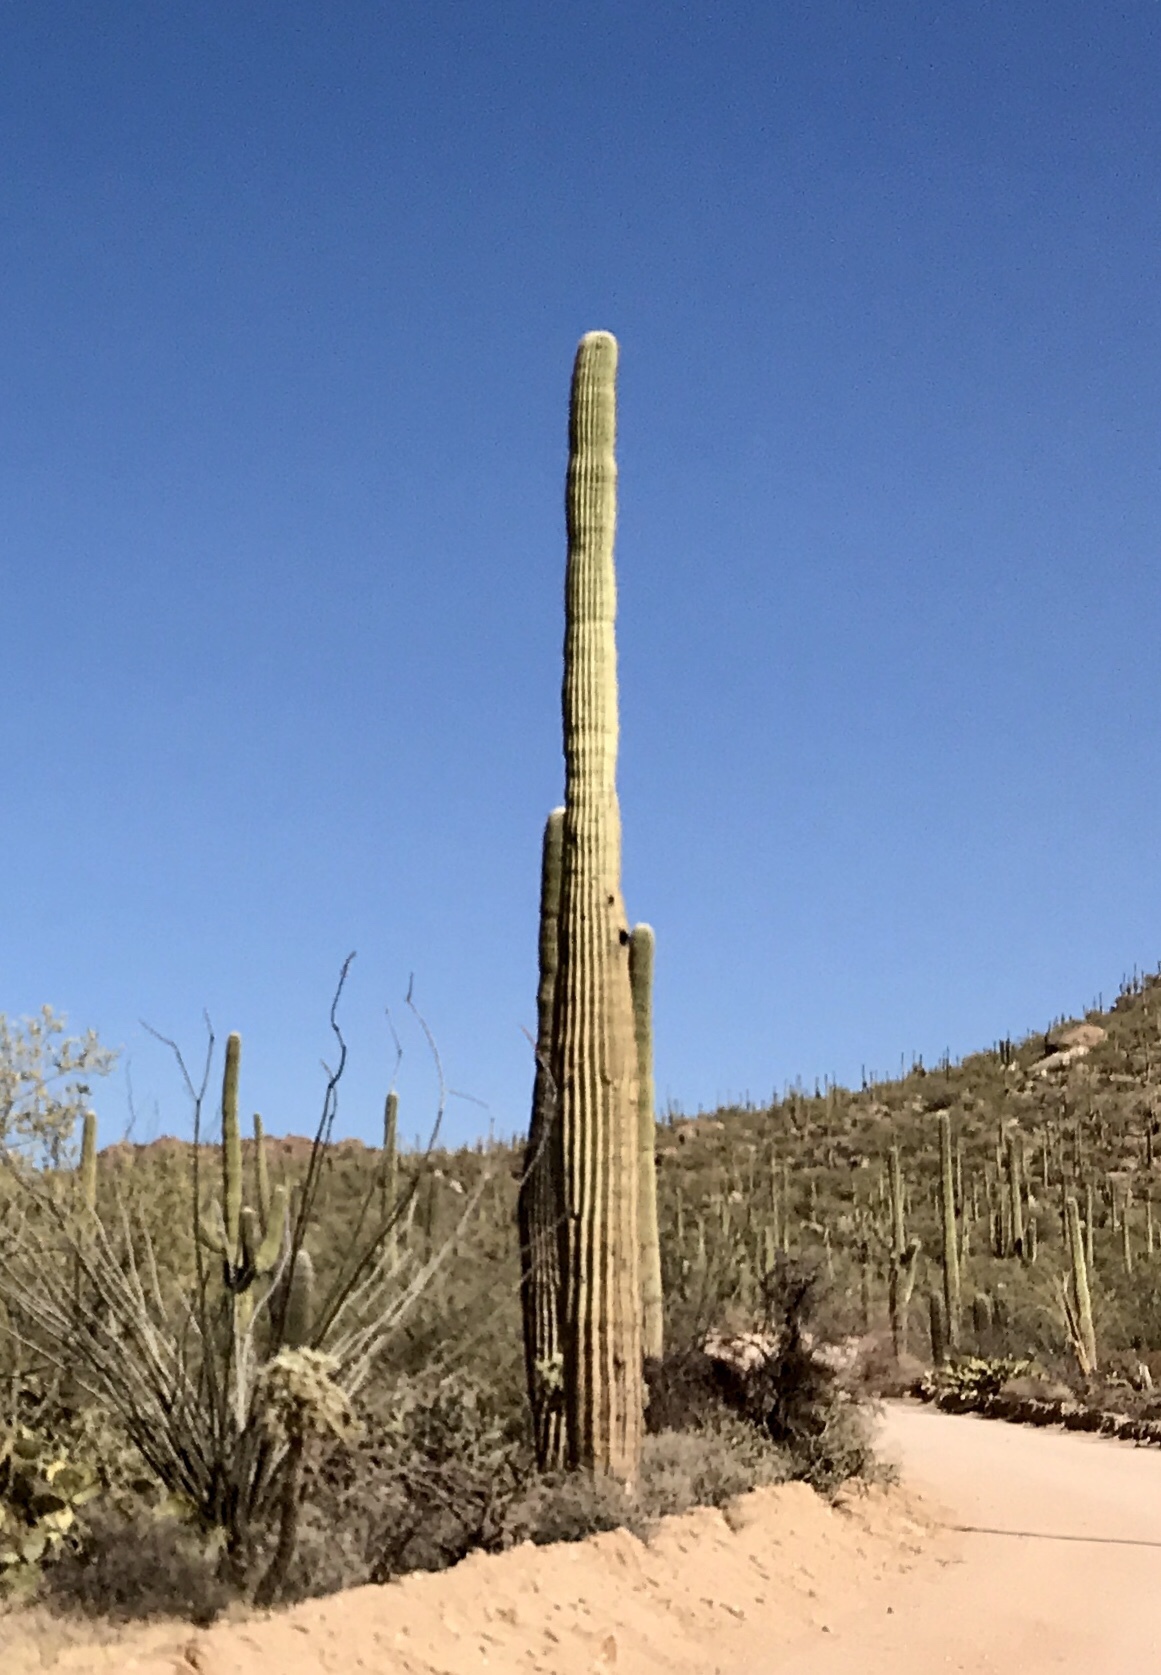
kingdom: Plantae
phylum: Tracheophyta
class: Magnoliopsida
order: Caryophyllales
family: Cactaceae
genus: Carnegiea
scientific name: Carnegiea gigantea
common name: Saguaro
